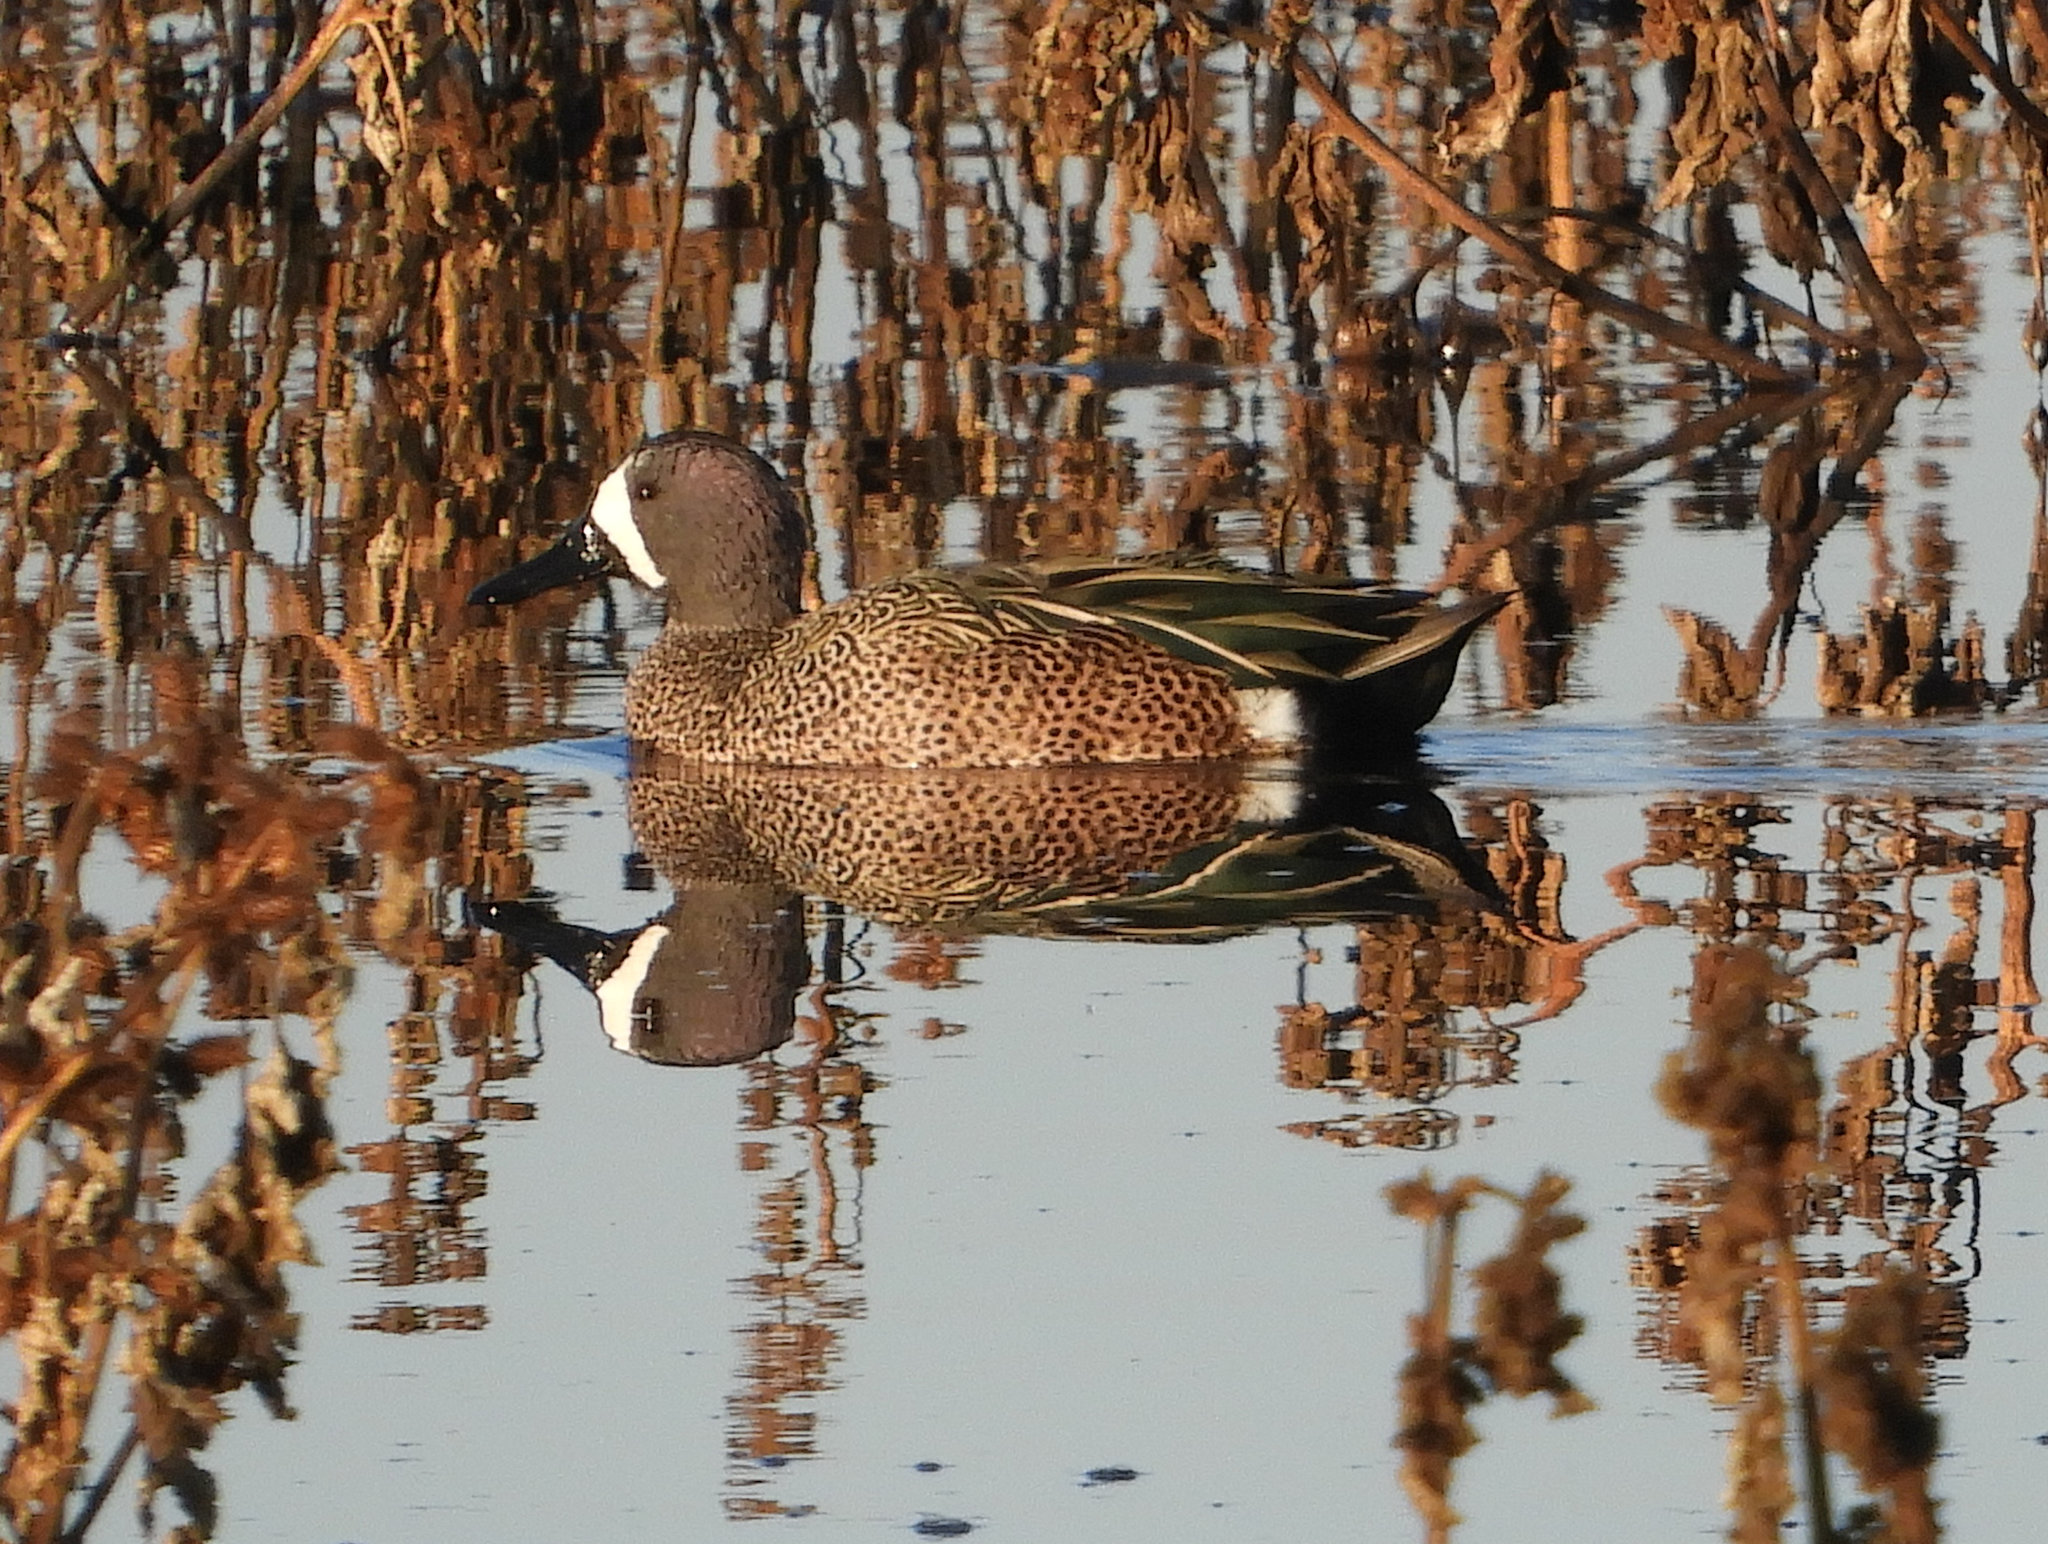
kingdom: Animalia
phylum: Chordata
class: Aves
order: Anseriformes
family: Anatidae
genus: Spatula
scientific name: Spatula discors
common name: Blue-winged teal
